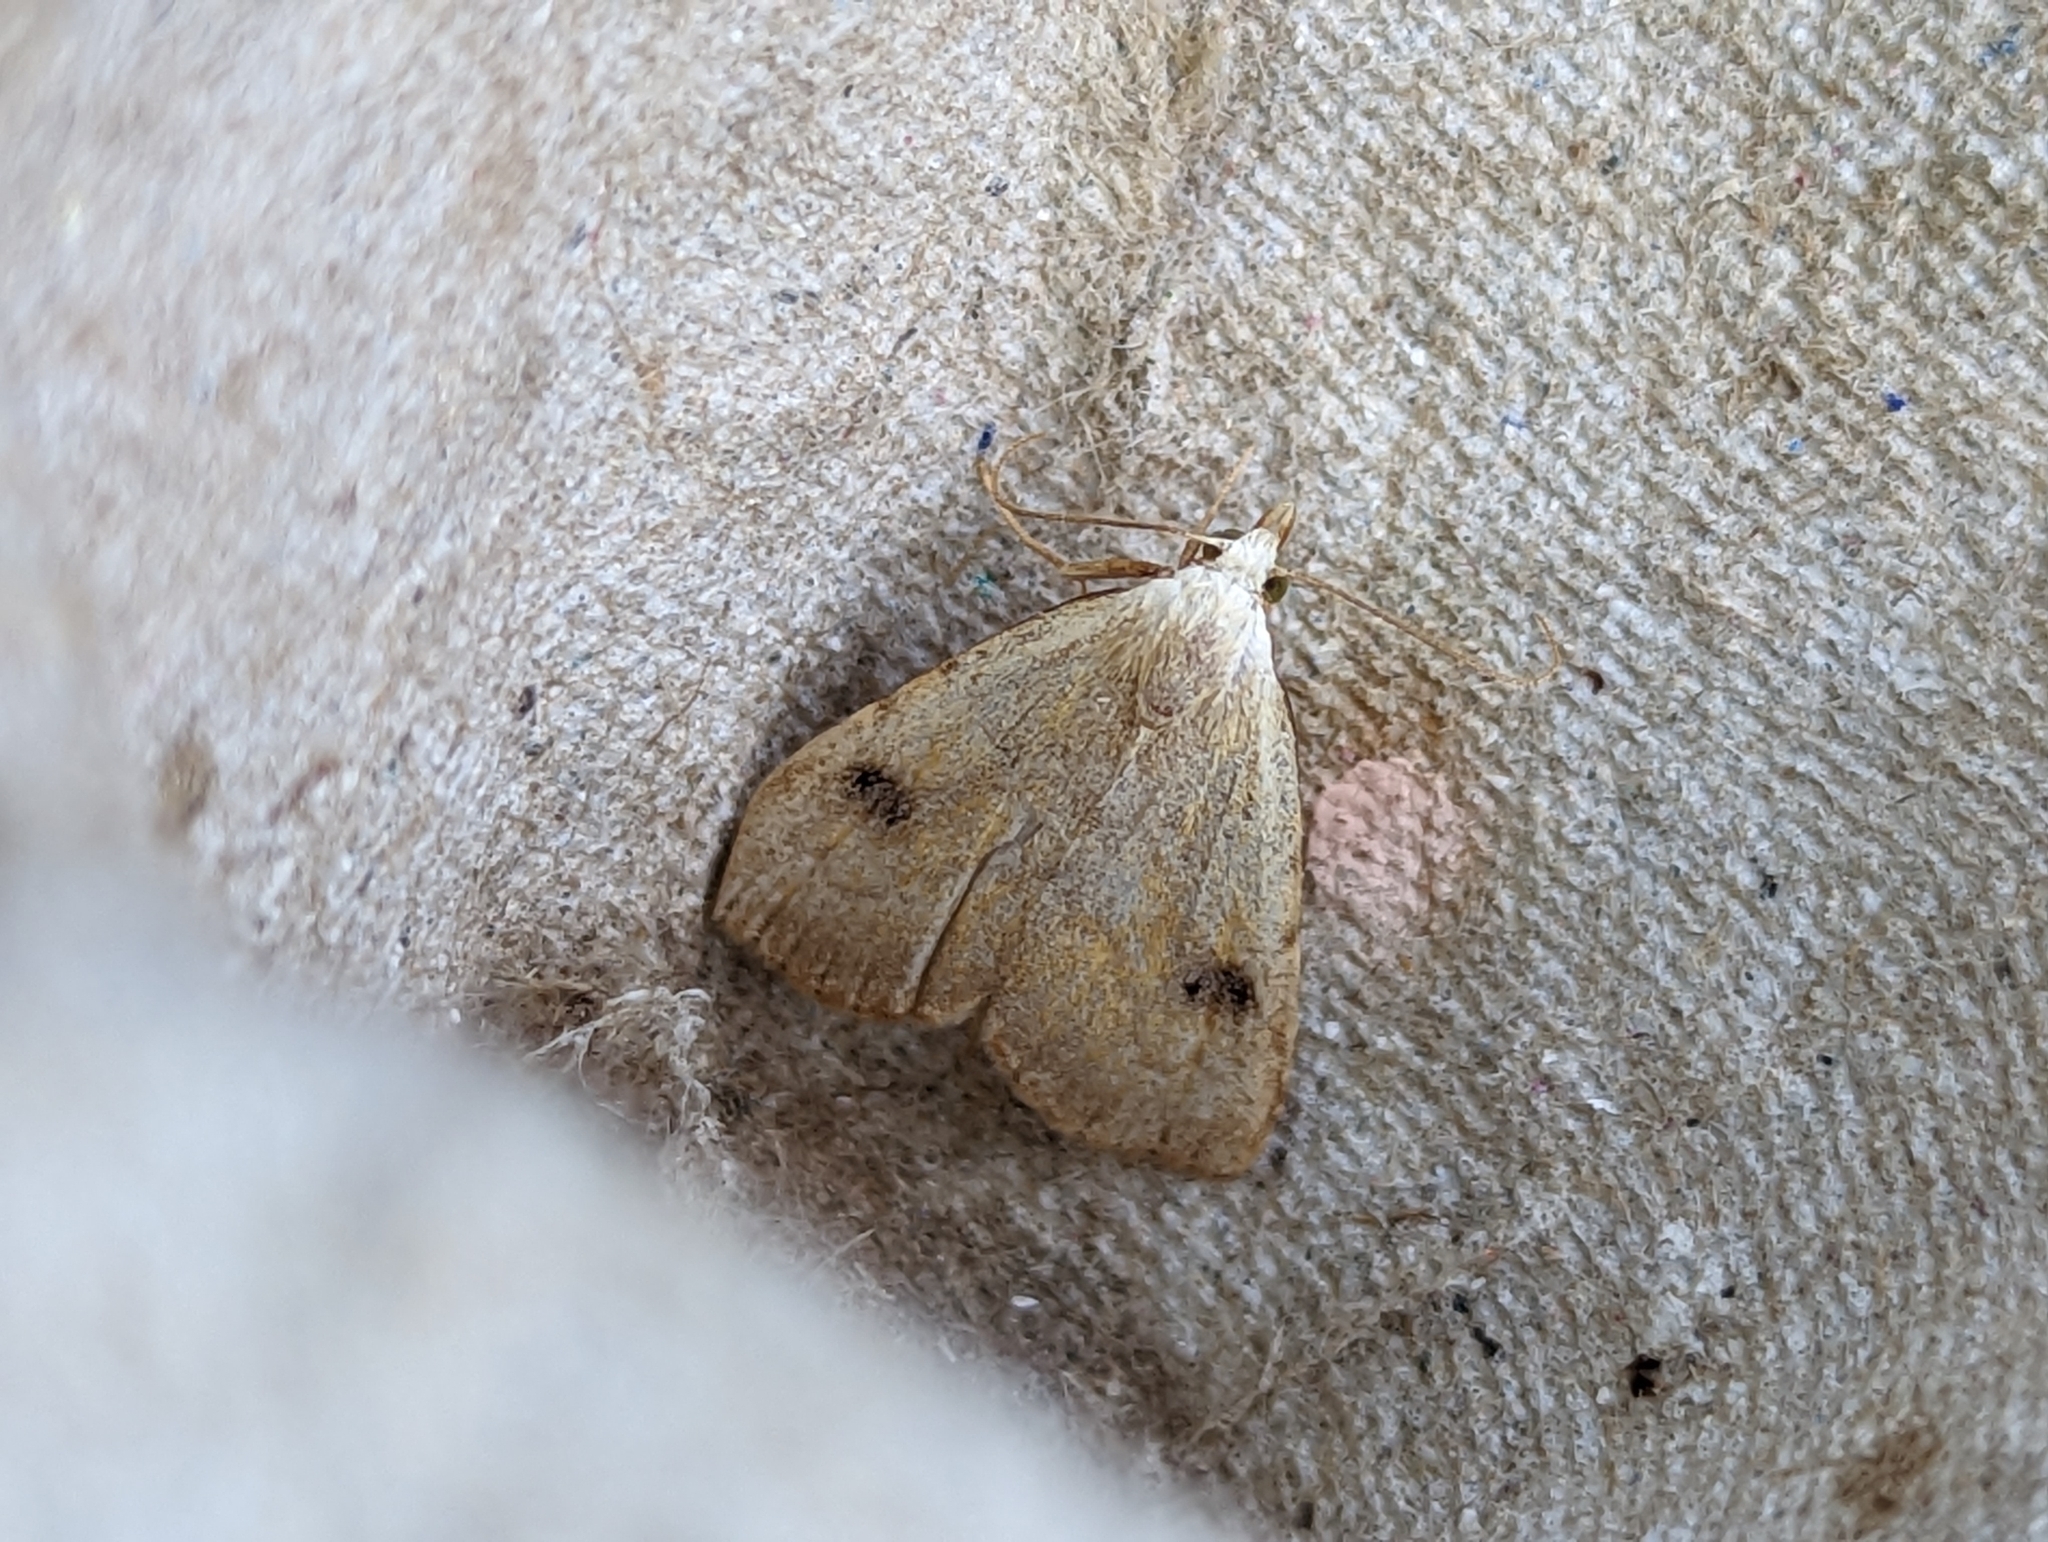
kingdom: Animalia
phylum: Arthropoda
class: Insecta
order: Lepidoptera
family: Erebidae
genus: Rivula
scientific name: Rivula sericealis
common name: Straw dot
